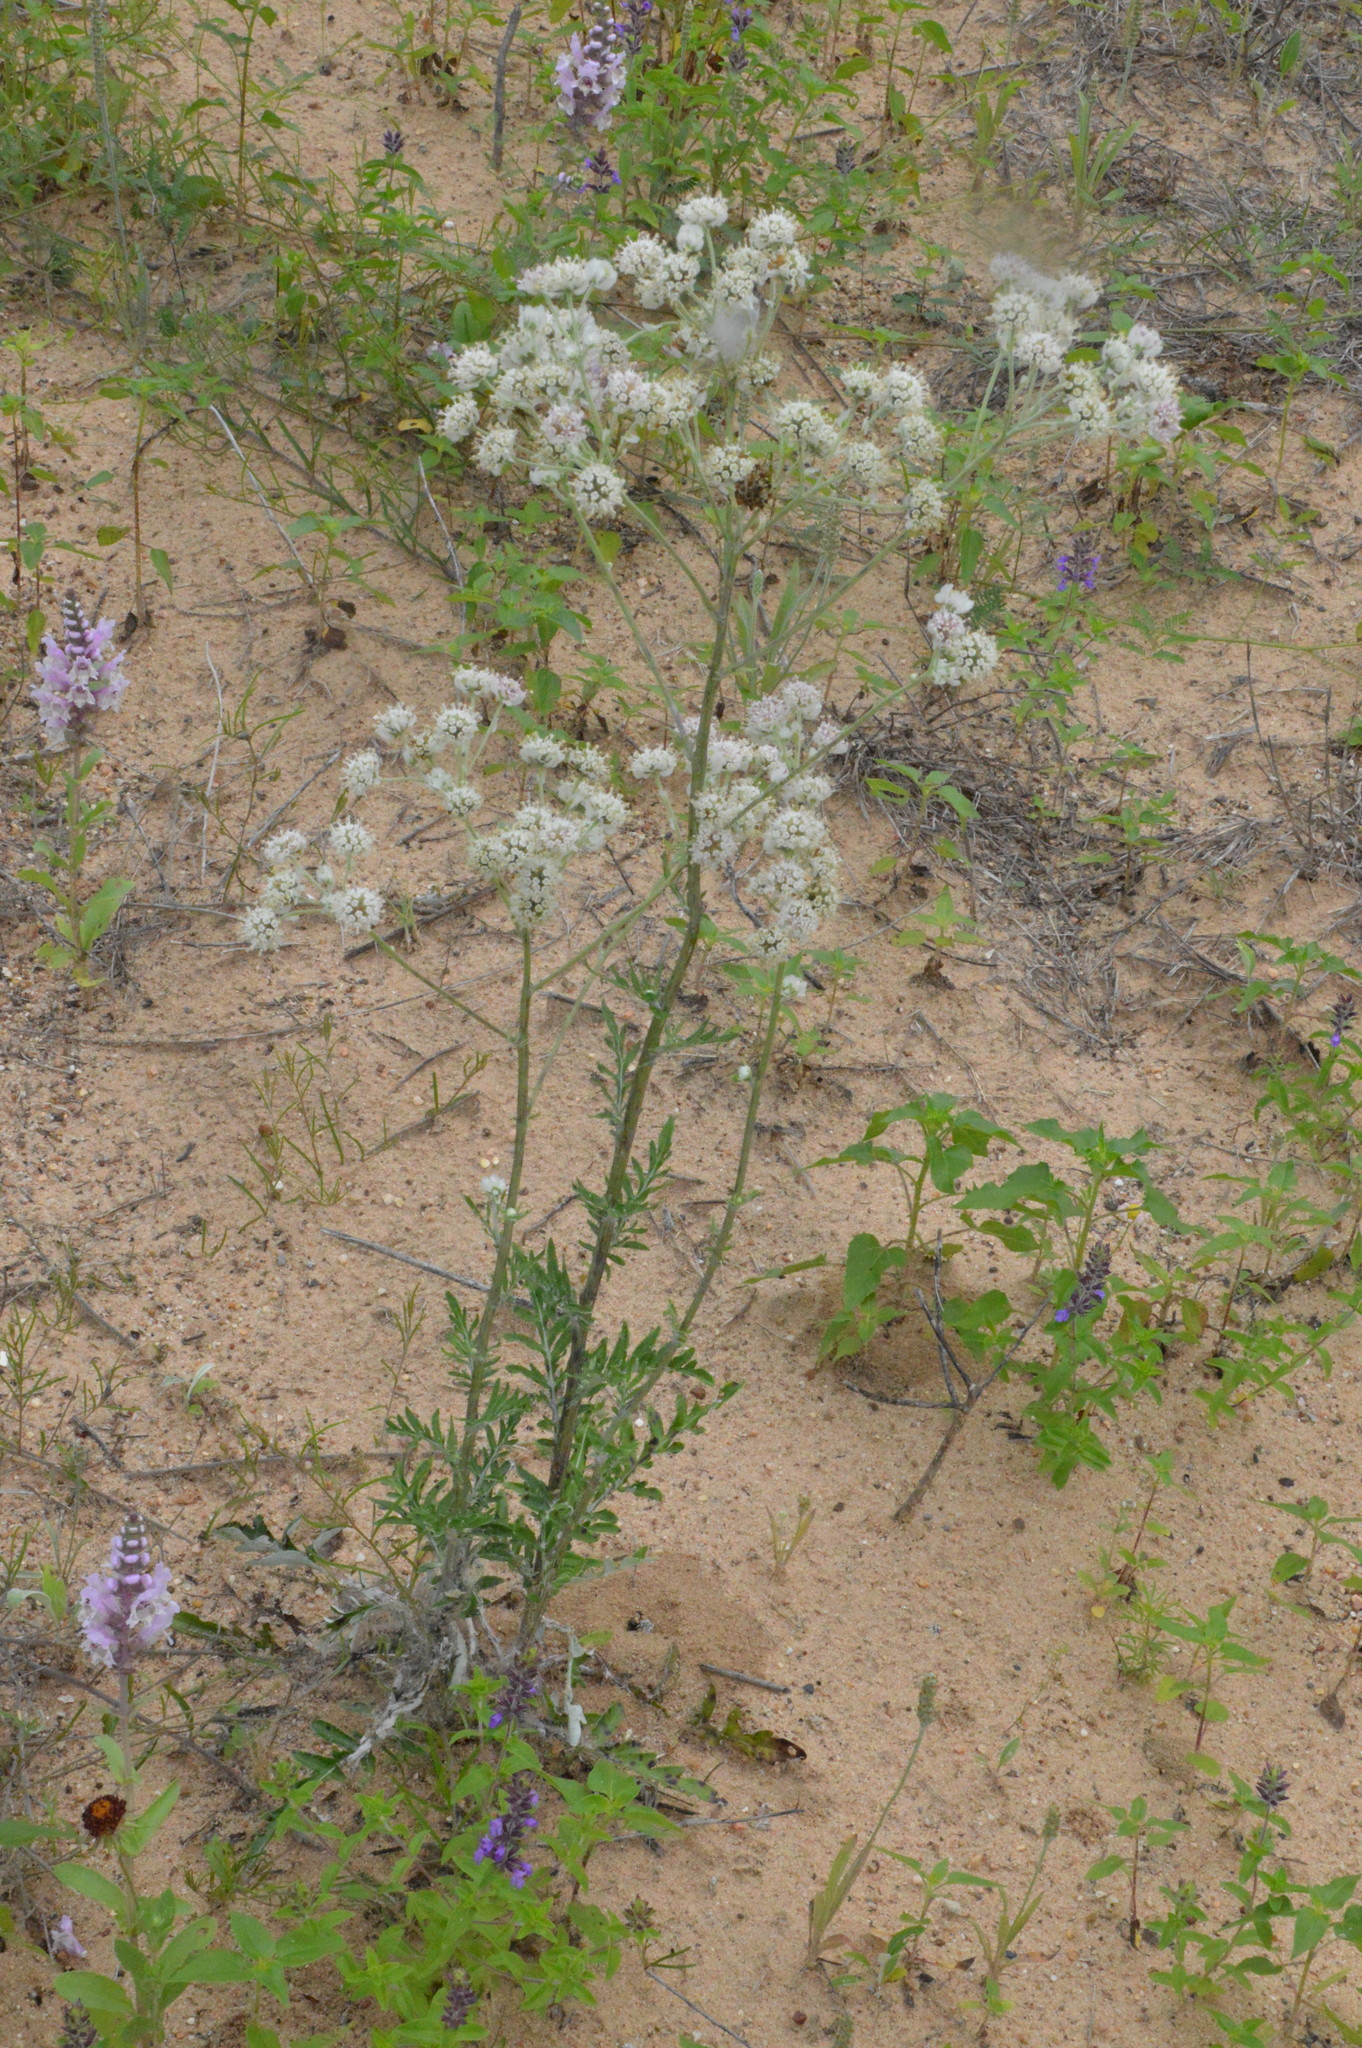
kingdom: Plantae
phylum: Tracheophyta
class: Magnoliopsida
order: Asterales
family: Asteraceae
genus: Hymenopappus
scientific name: Hymenopappus artemisiifolius
